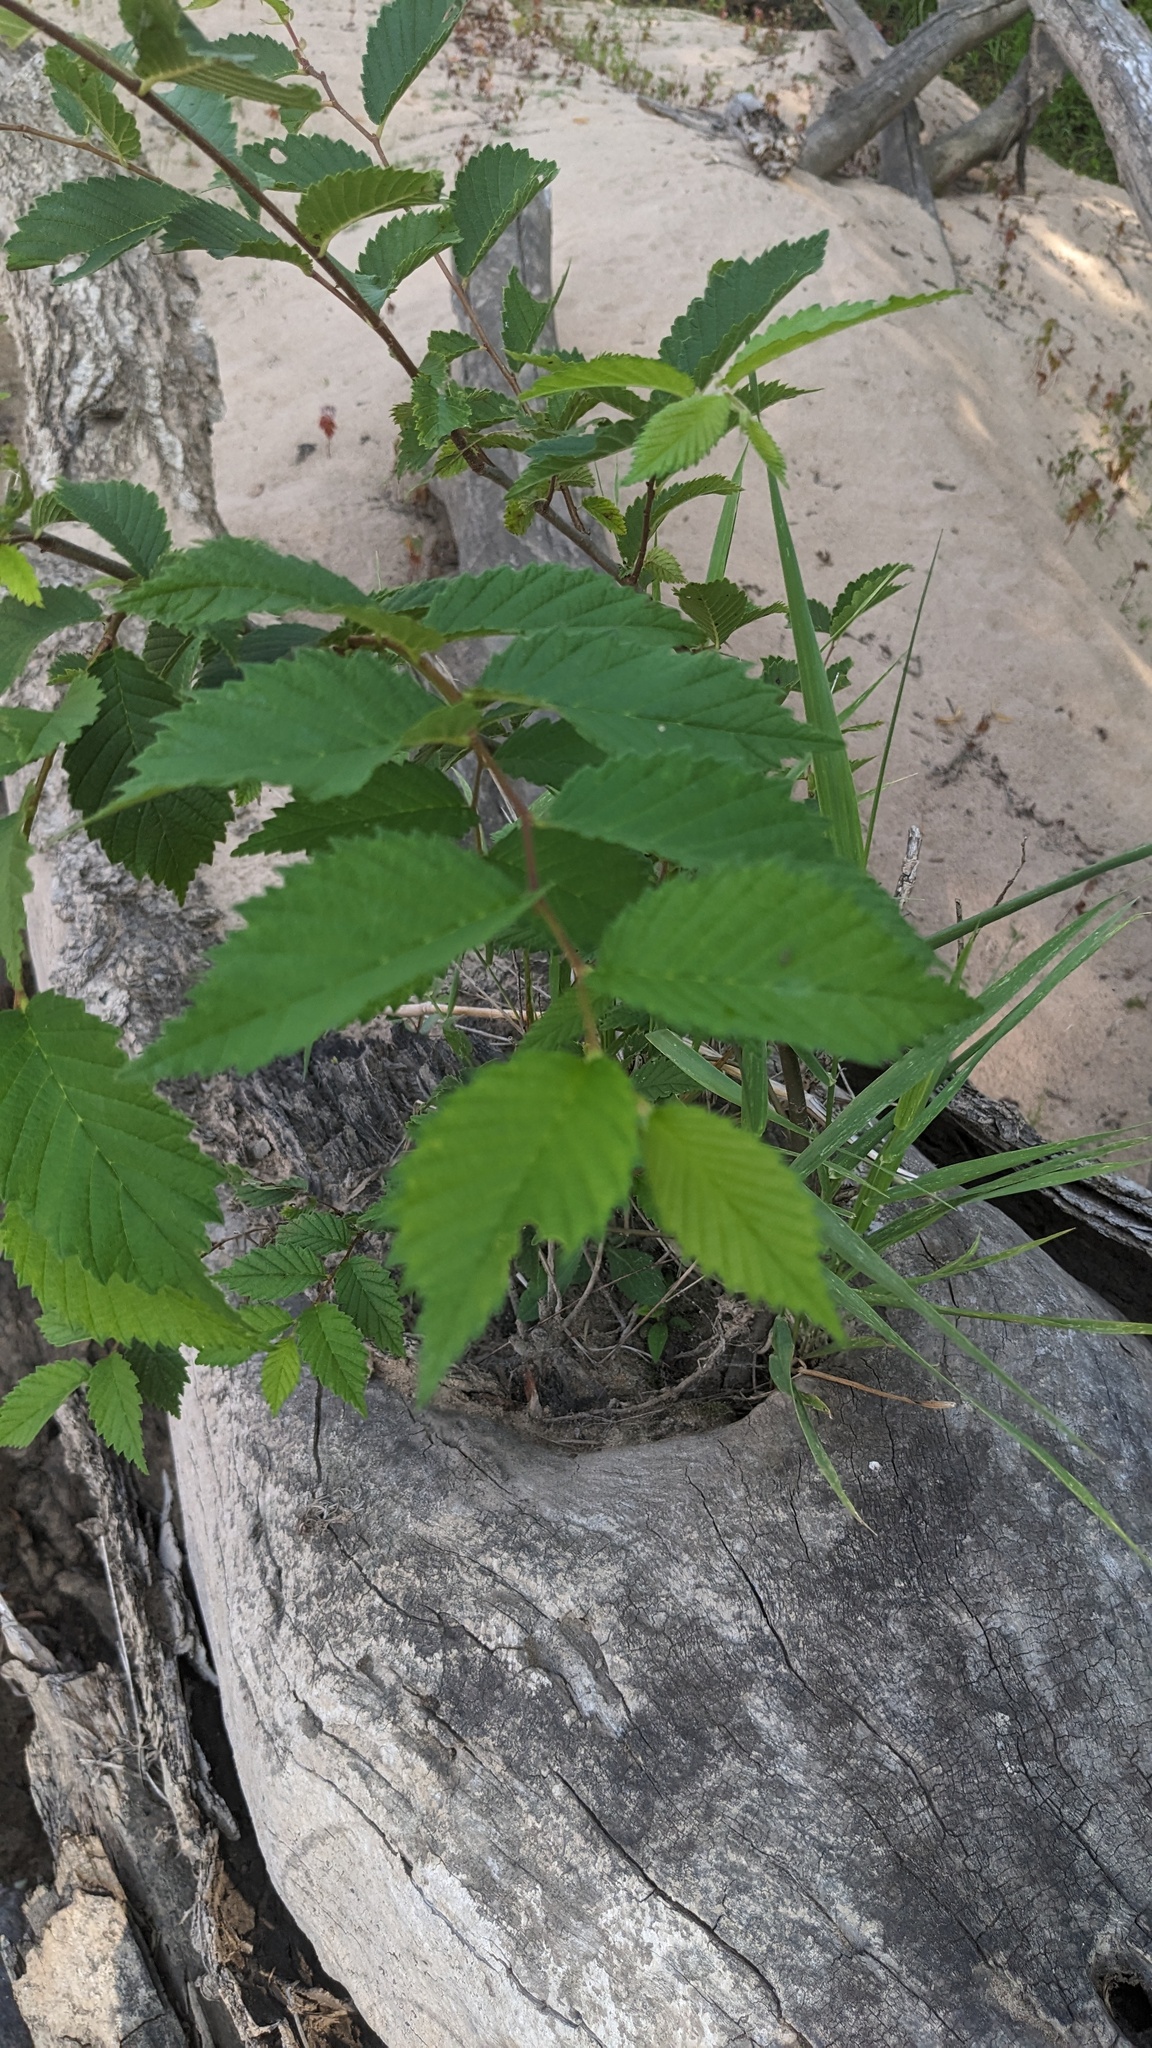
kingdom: Plantae
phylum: Tracheophyta
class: Magnoliopsida
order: Rosales
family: Ulmaceae
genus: Ulmus
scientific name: Ulmus americana
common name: American elm
